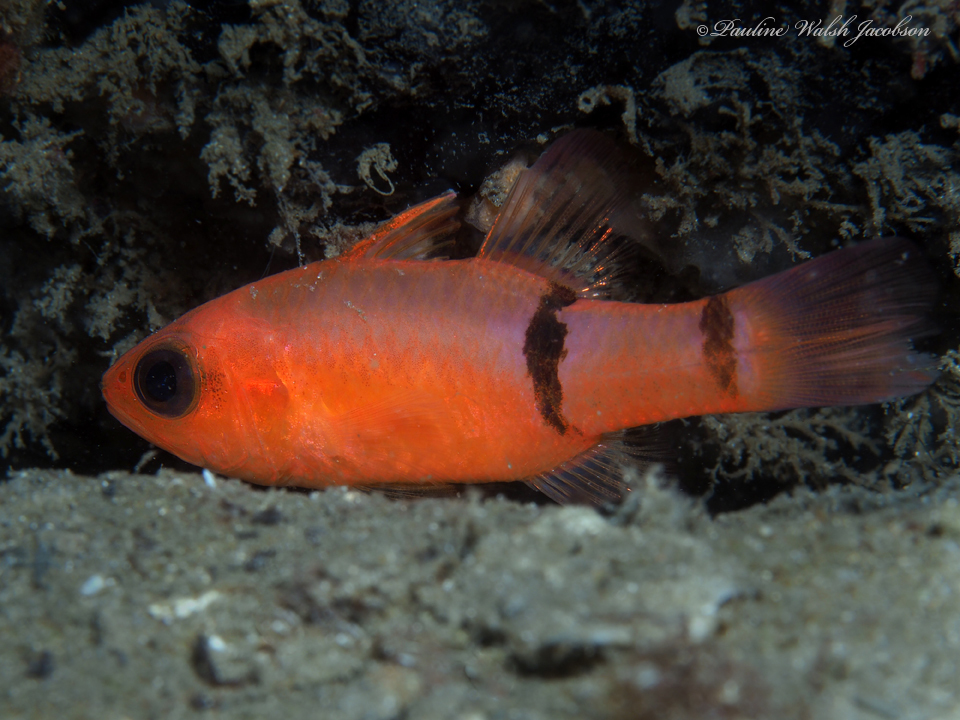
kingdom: Animalia
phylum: Chordata
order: Perciformes
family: Apogonidae
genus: Apogon
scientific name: Apogon binotatus
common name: Barred cardinalfish
